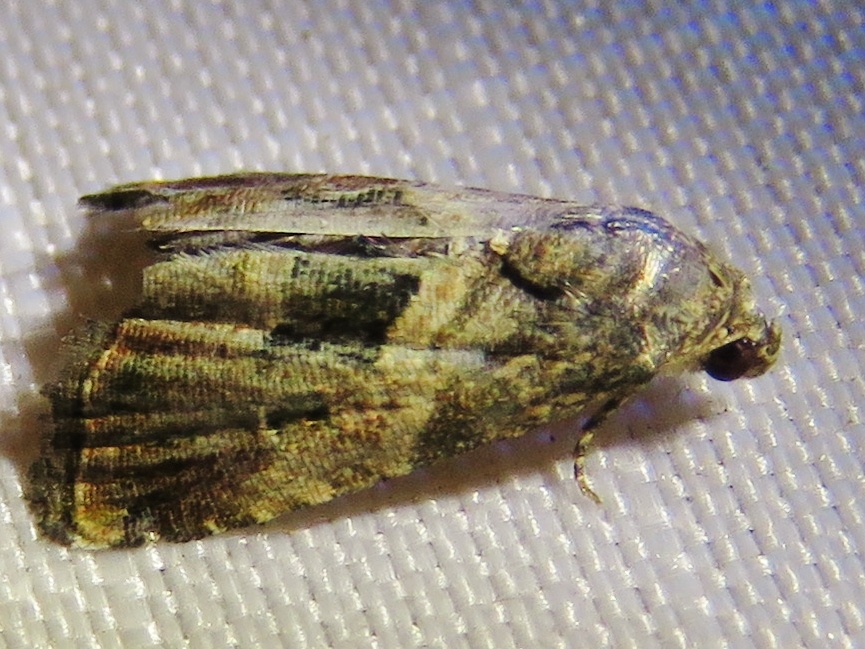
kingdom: Animalia
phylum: Arthropoda
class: Insecta
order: Lepidoptera
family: Noctuidae
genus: Tripudia
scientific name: Tripudia quadrifera
